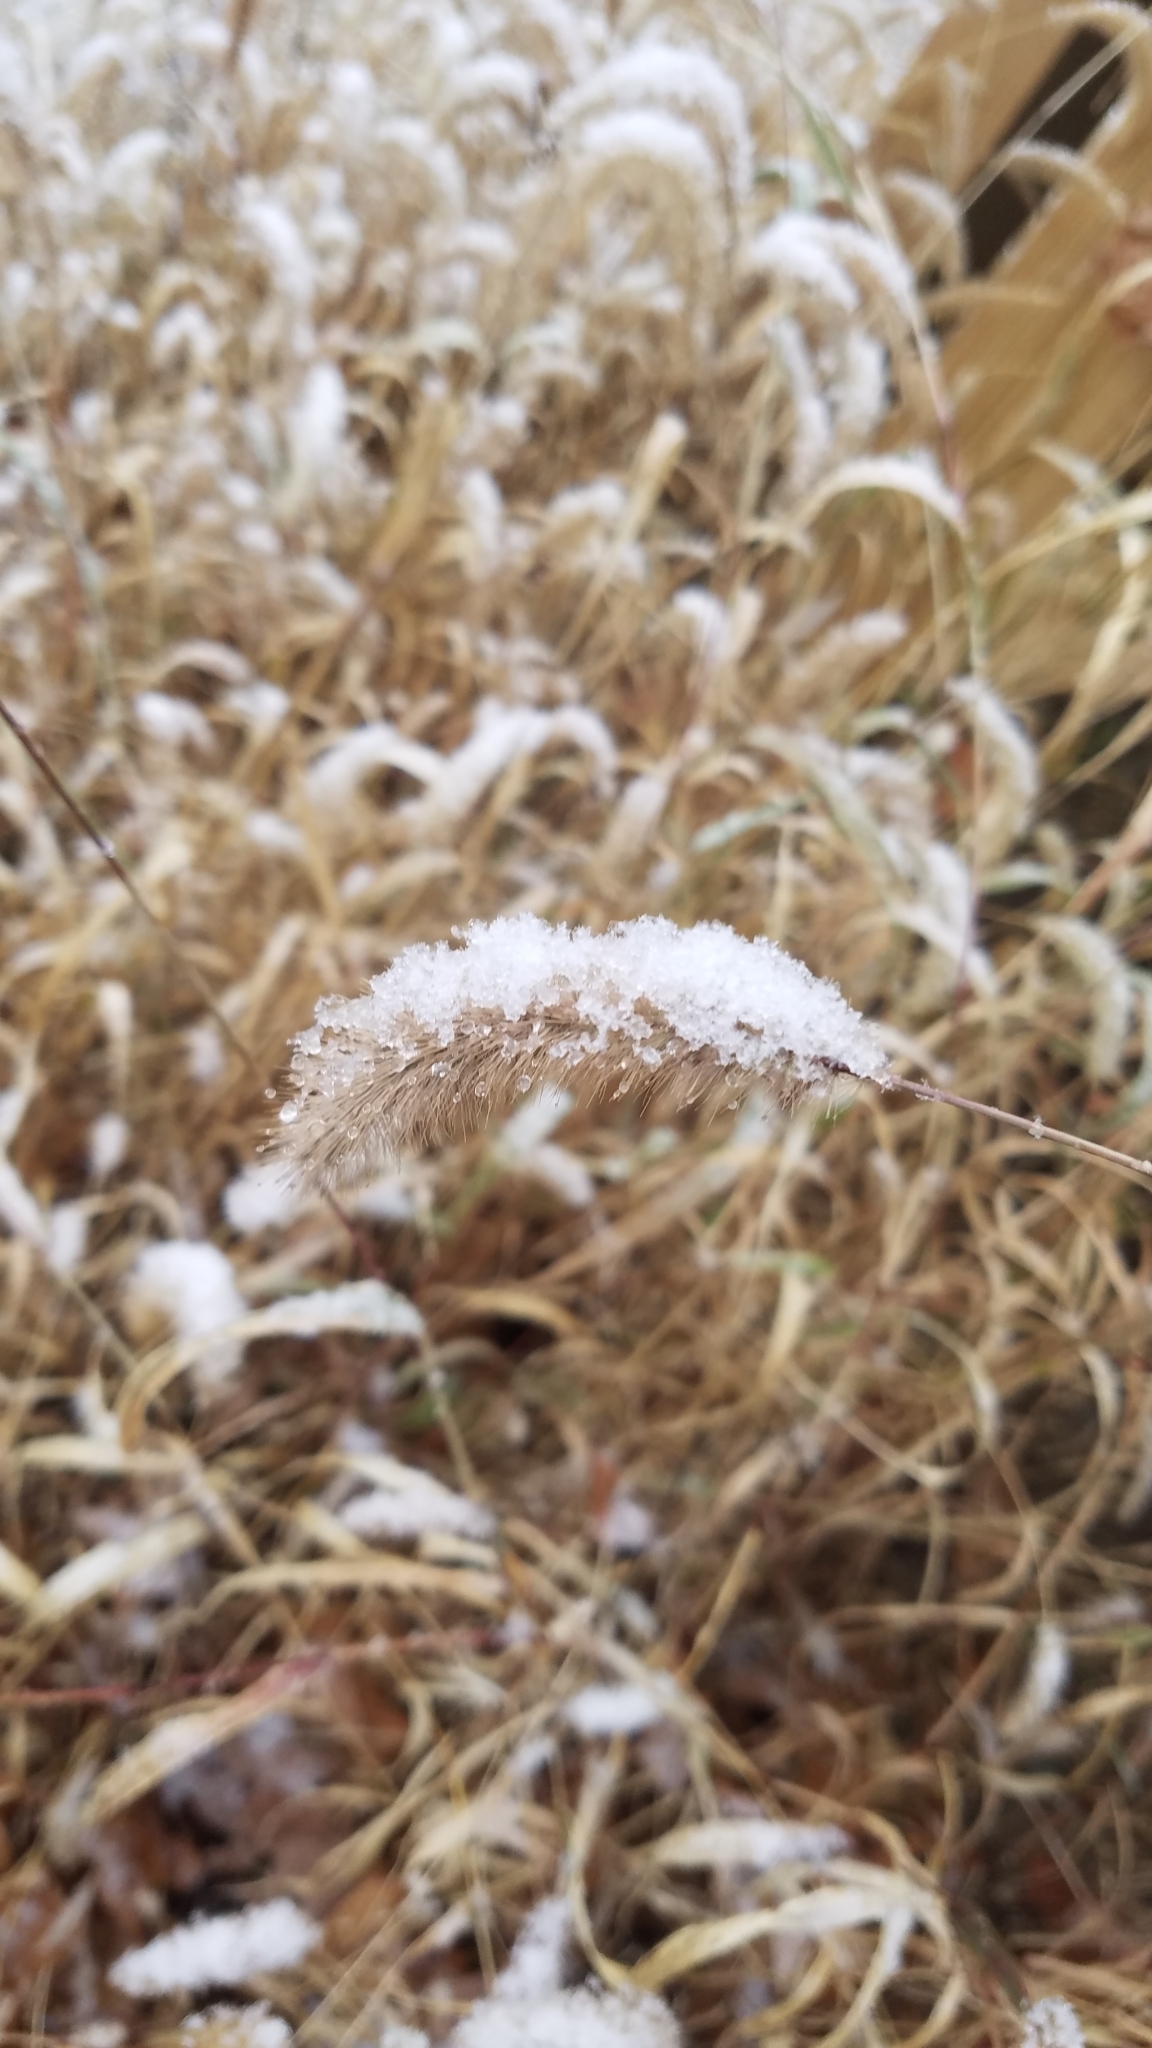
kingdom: Plantae
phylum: Tracheophyta
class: Liliopsida
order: Poales
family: Poaceae
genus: Setaria
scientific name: Setaria faberi
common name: Nodding bristle-grass
